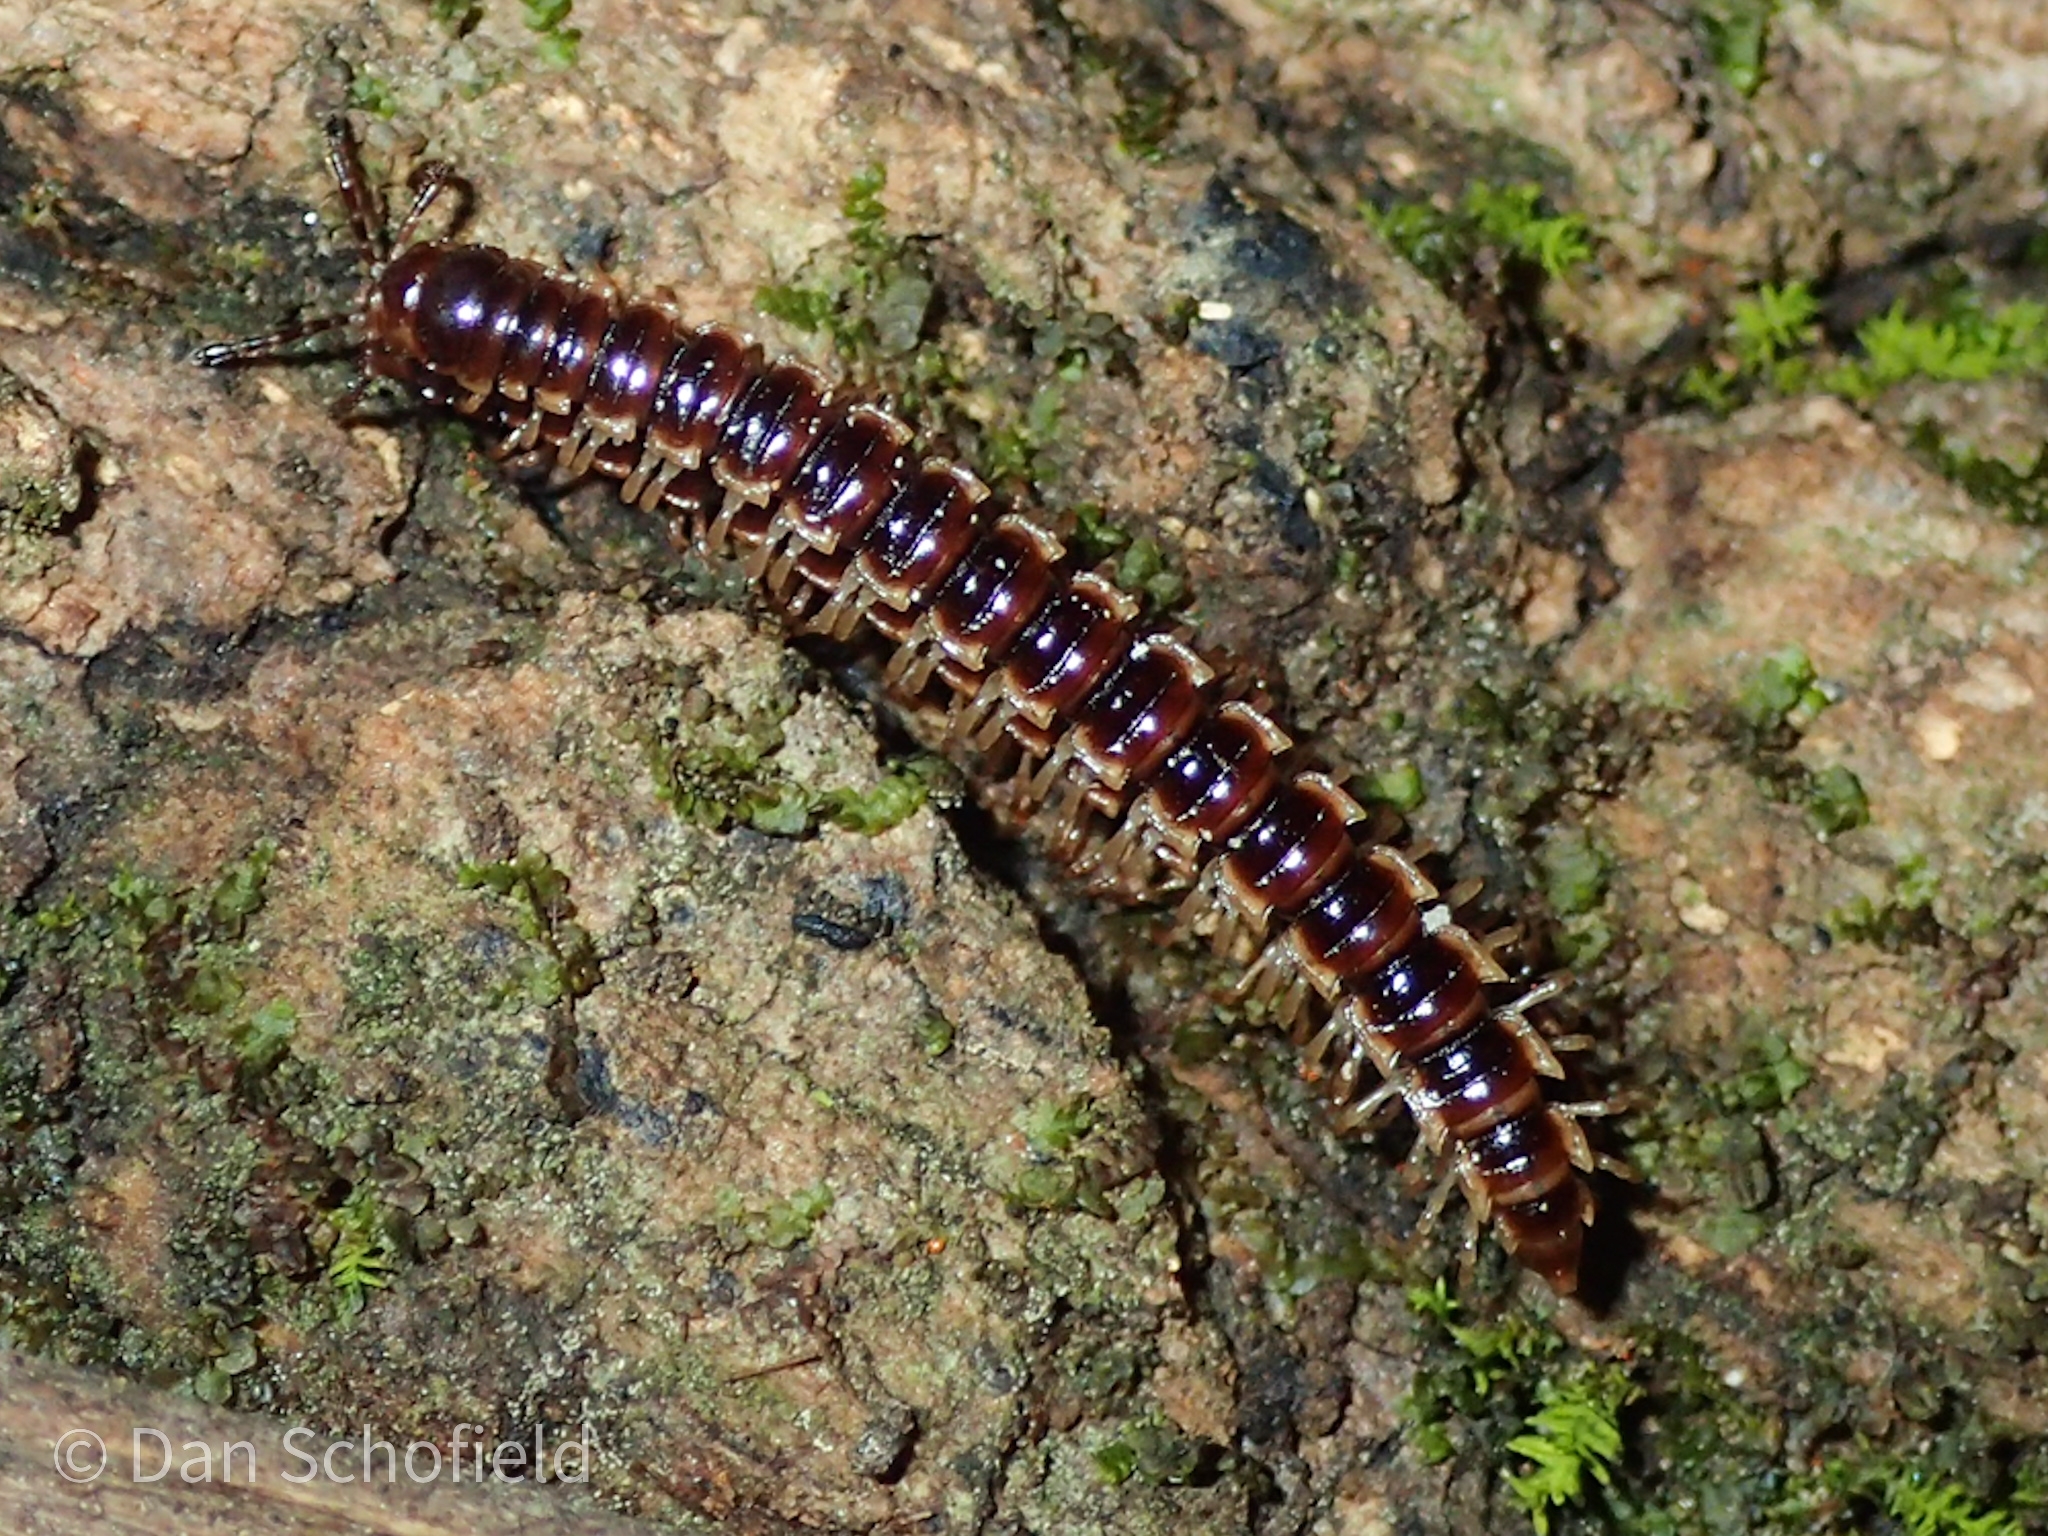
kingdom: Animalia
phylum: Arthropoda
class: Diplopoda
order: Polydesmida
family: Paradoxosomatidae
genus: Oxidus
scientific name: Oxidus gracilis
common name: Greenhouse millipede
